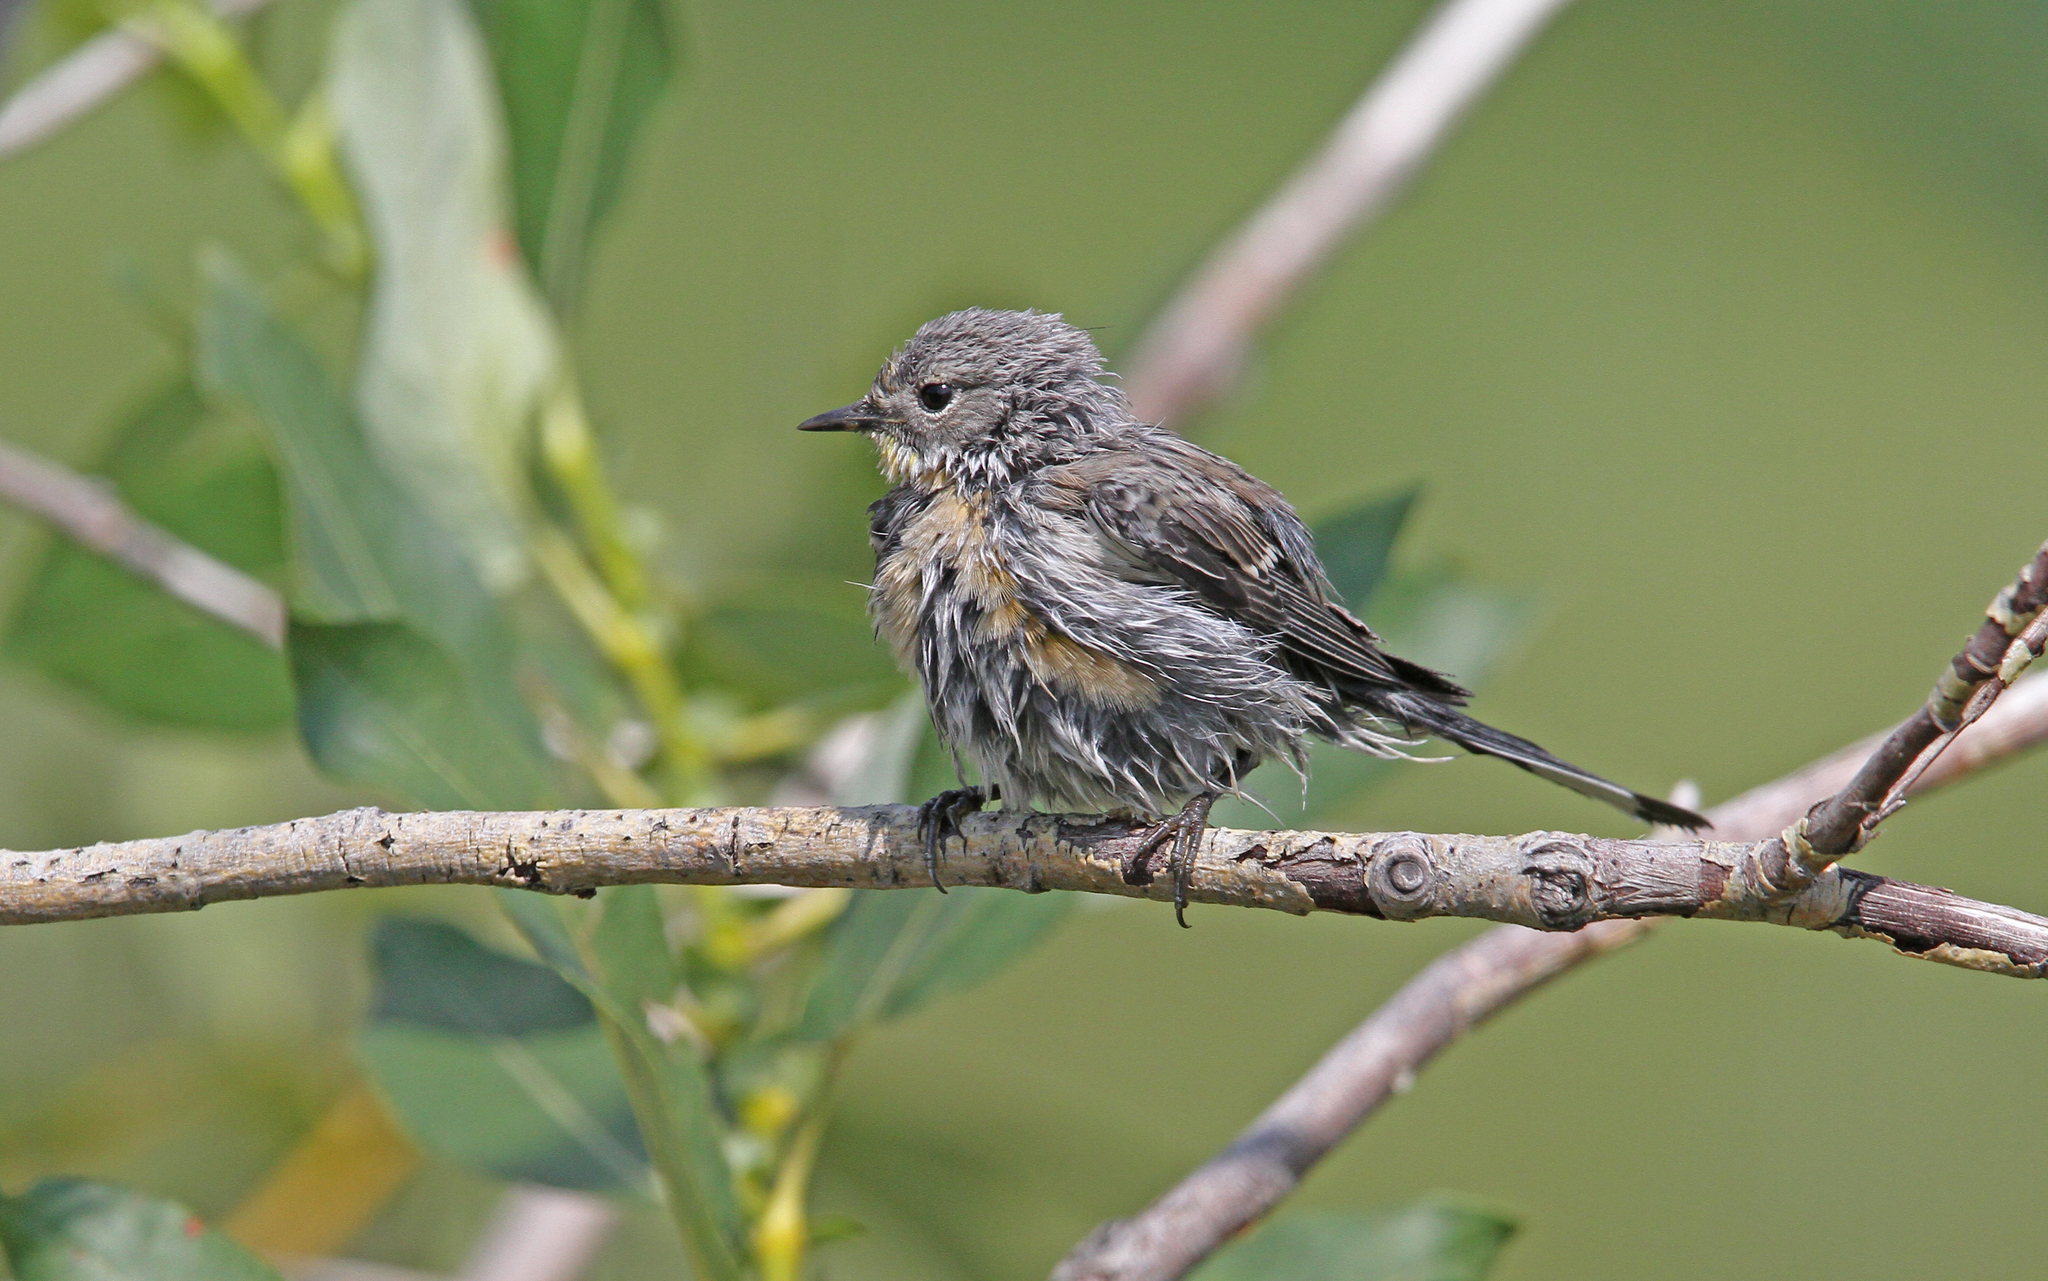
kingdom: Animalia
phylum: Chordata
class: Aves
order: Passeriformes
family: Parulidae
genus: Setophaga
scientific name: Setophaga coronata
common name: Myrtle warbler
